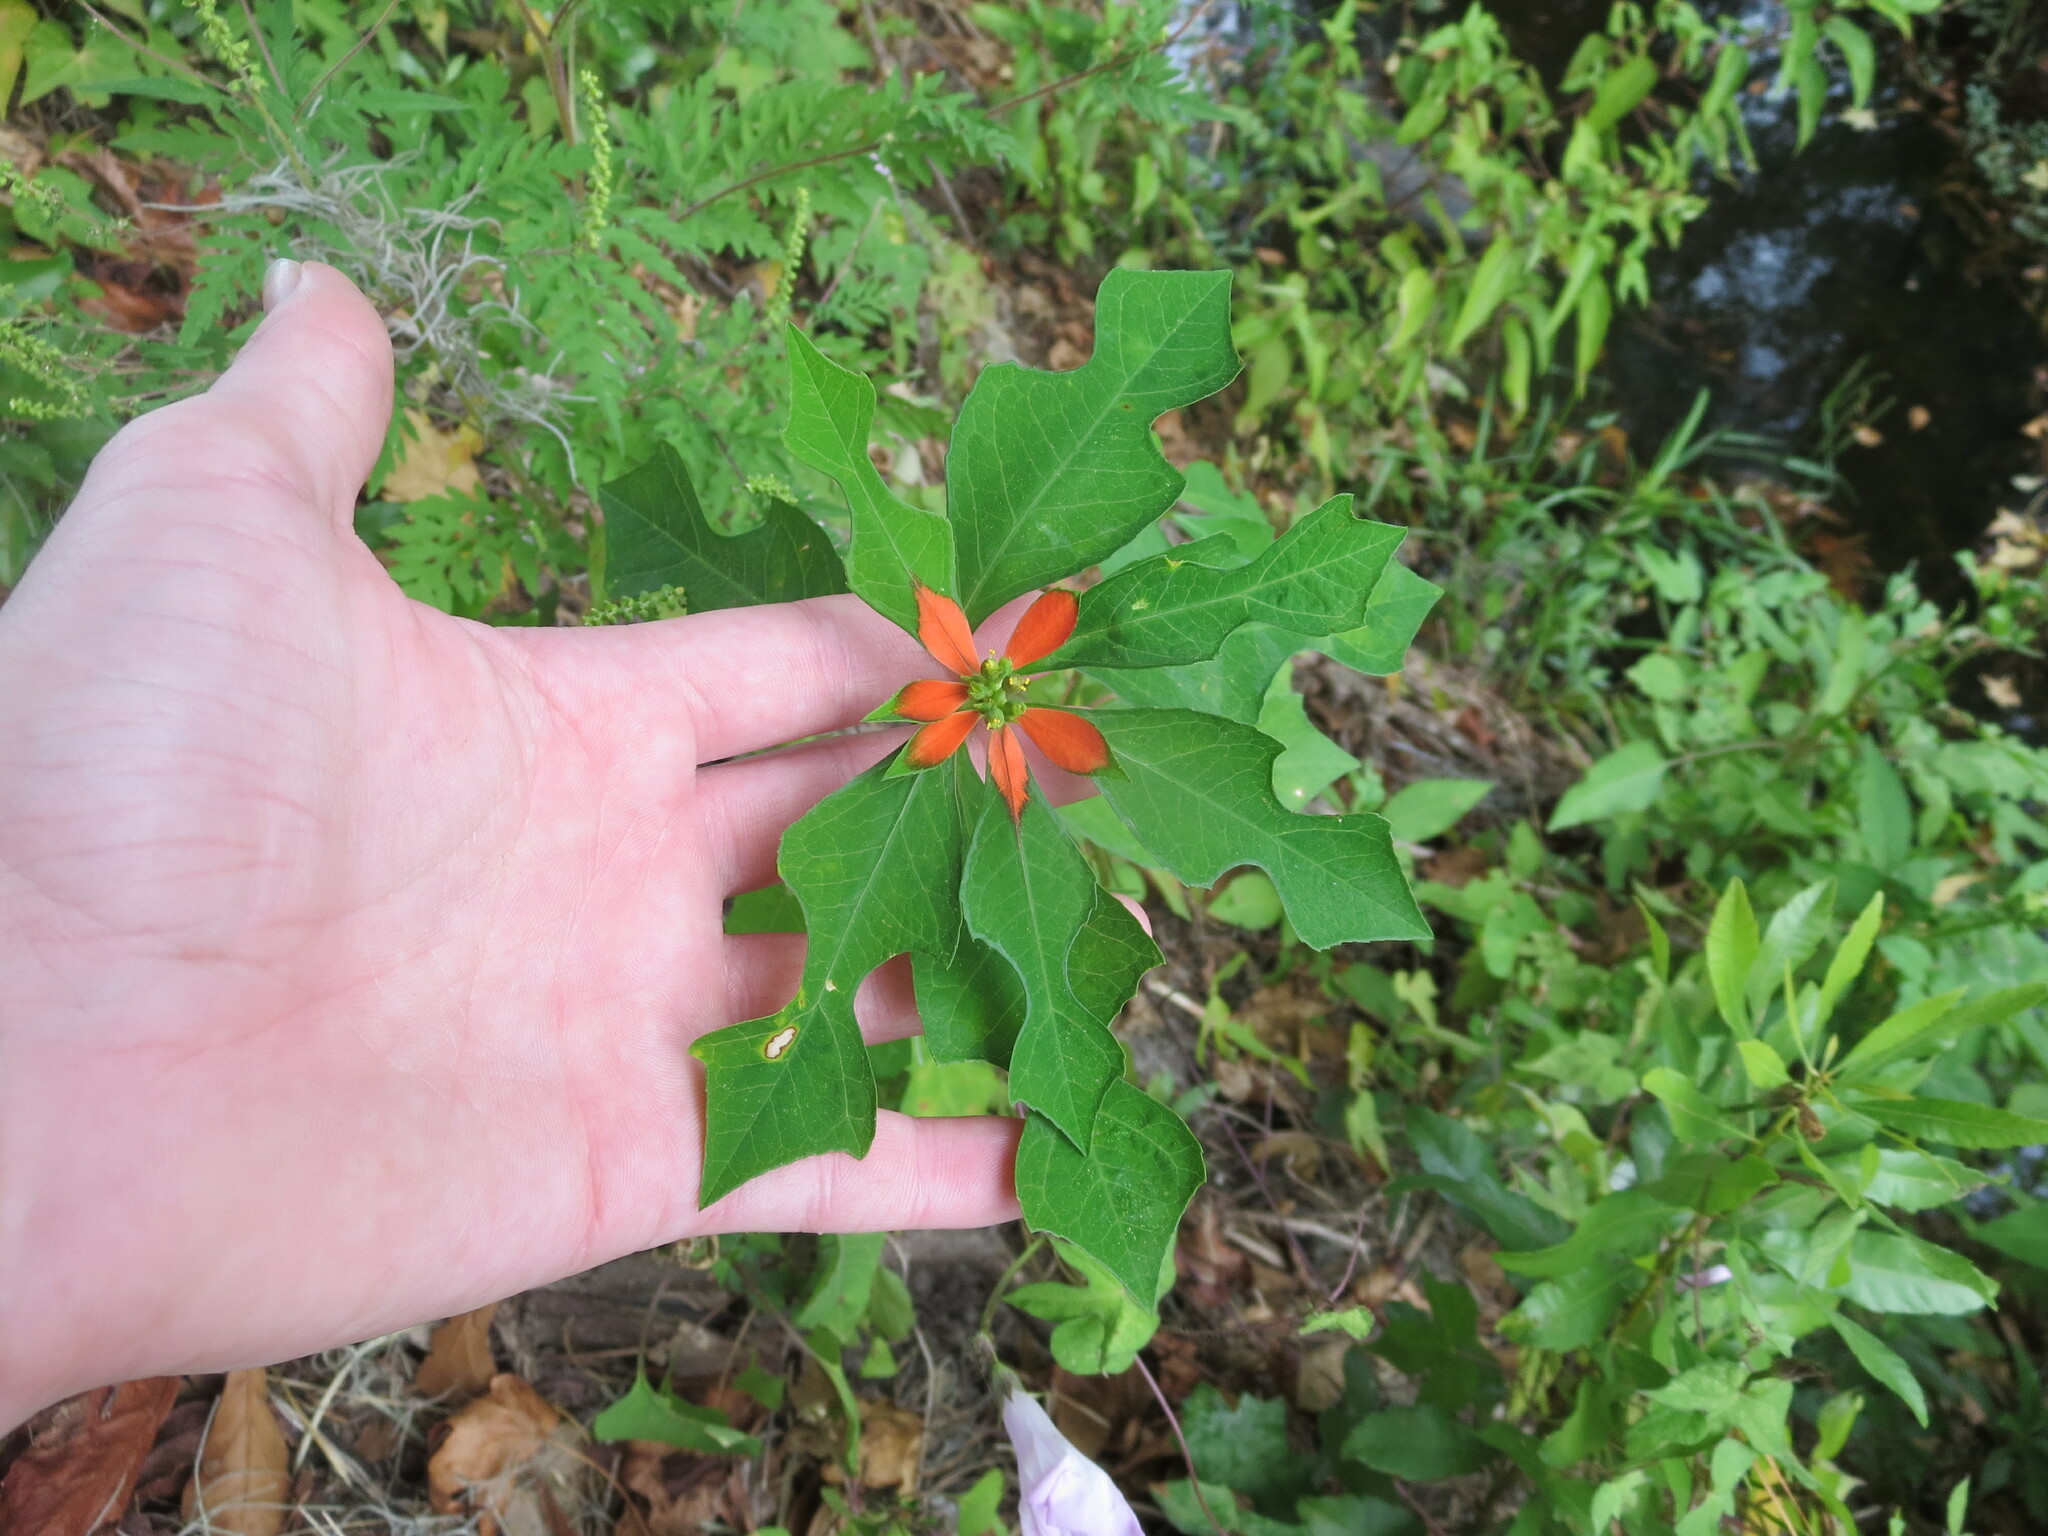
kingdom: Plantae
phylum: Tracheophyta
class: Magnoliopsida
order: Malpighiales
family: Euphorbiaceae
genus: Euphorbia
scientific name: Euphorbia heterophylla
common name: Mexican fireplant
